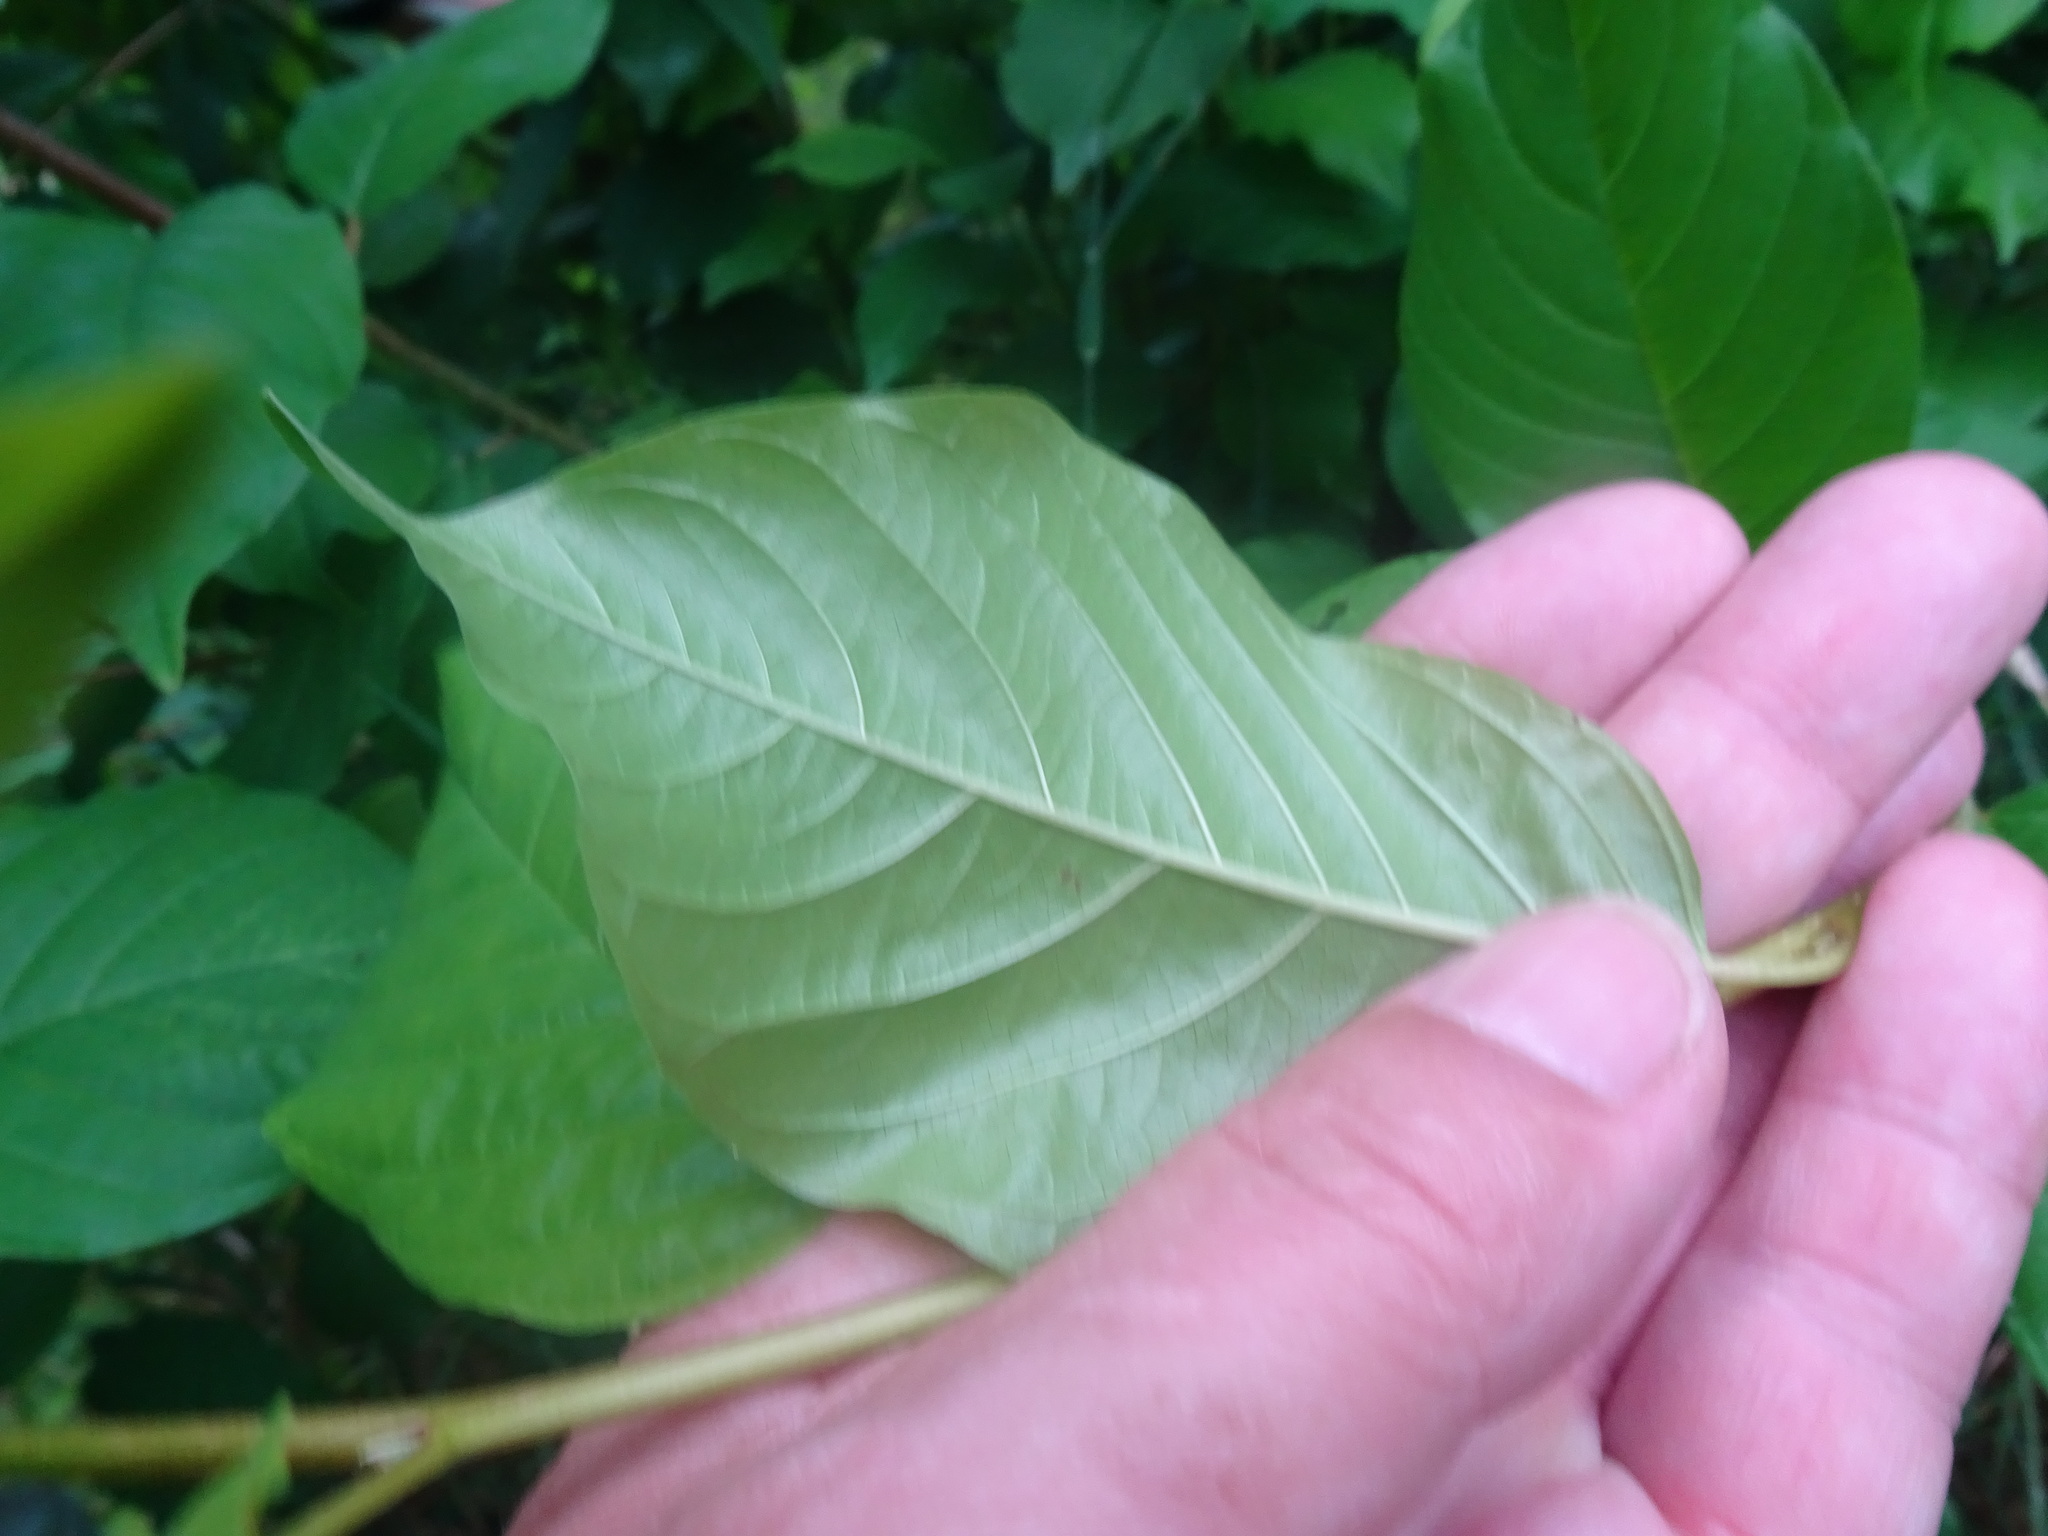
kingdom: Plantae
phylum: Tracheophyta
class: Magnoliopsida
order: Rosales
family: Rhamnaceae
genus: Frangula
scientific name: Frangula alnus
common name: Alder buckthorn
